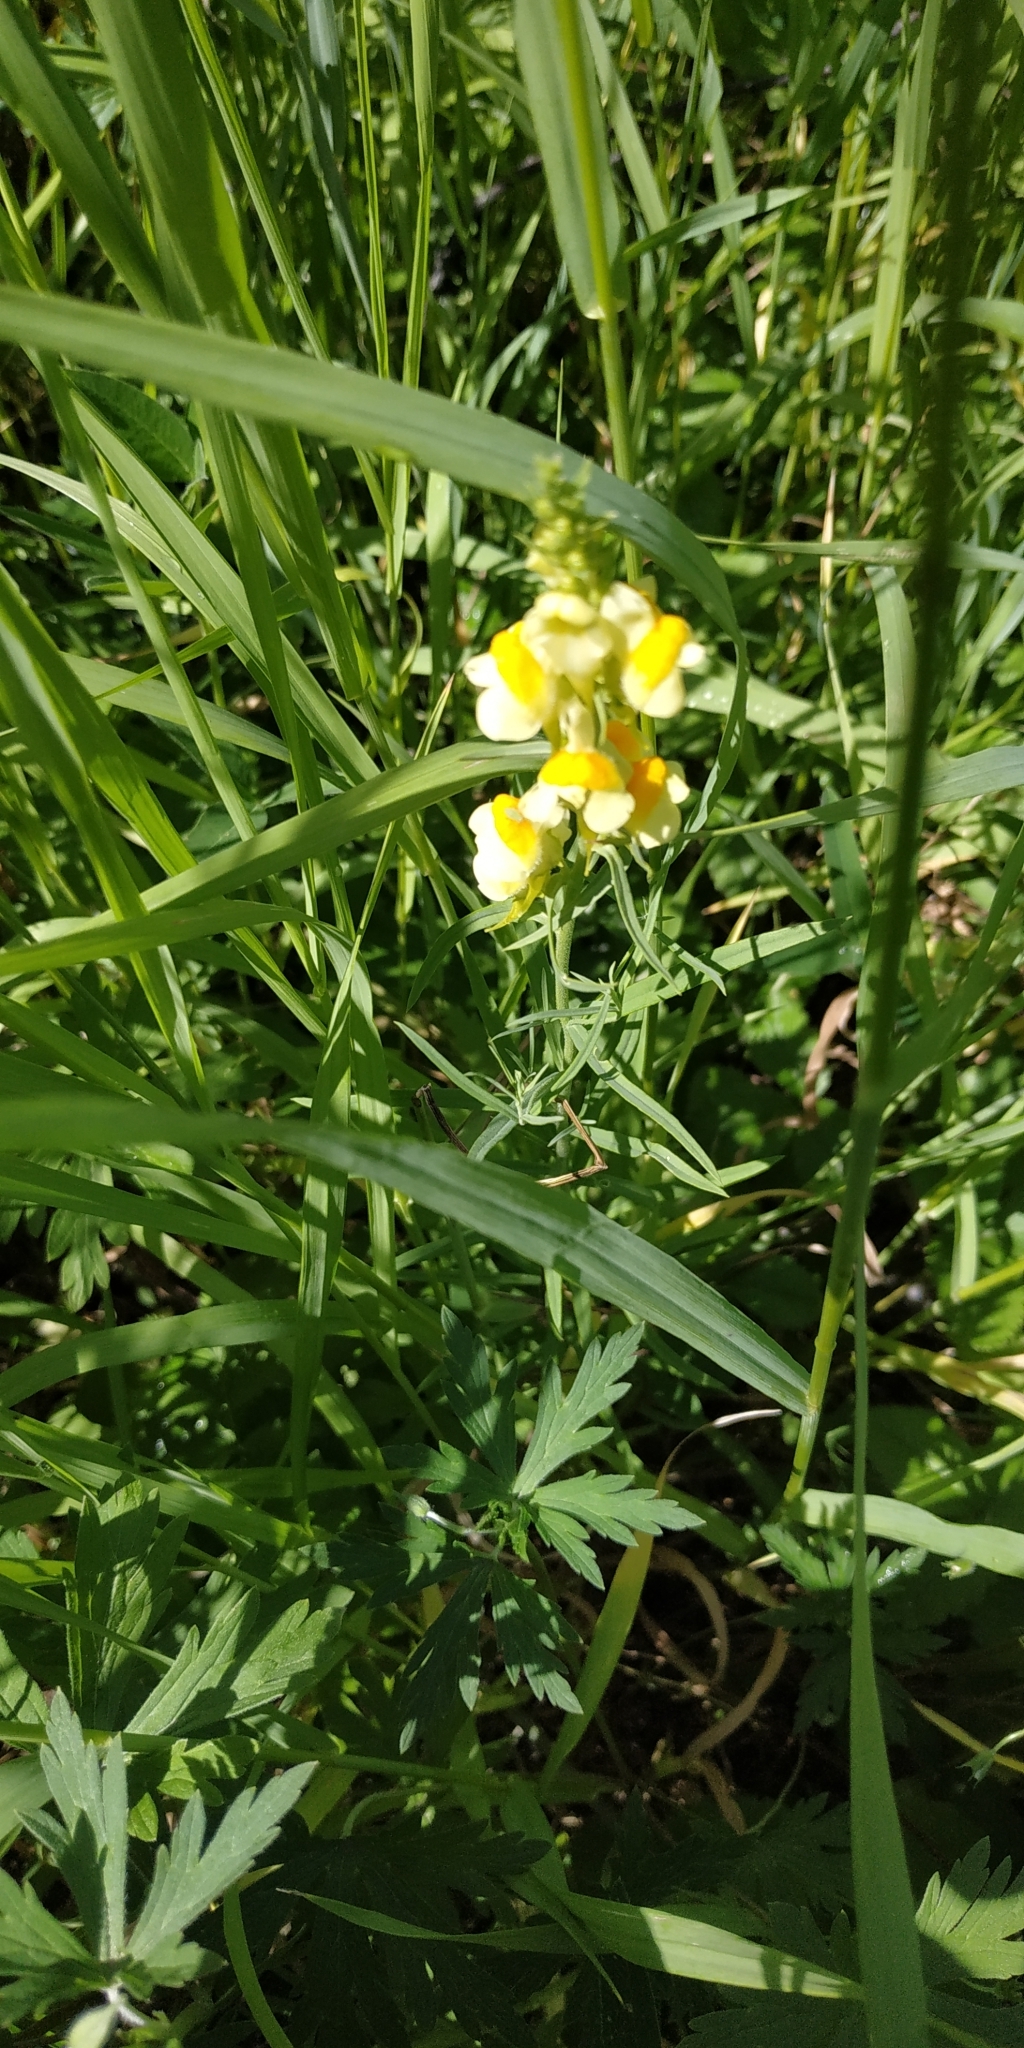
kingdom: Plantae
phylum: Tracheophyta
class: Magnoliopsida
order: Lamiales
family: Plantaginaceae
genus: Linaria
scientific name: Linaria vulgaris
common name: Butter and eggs
